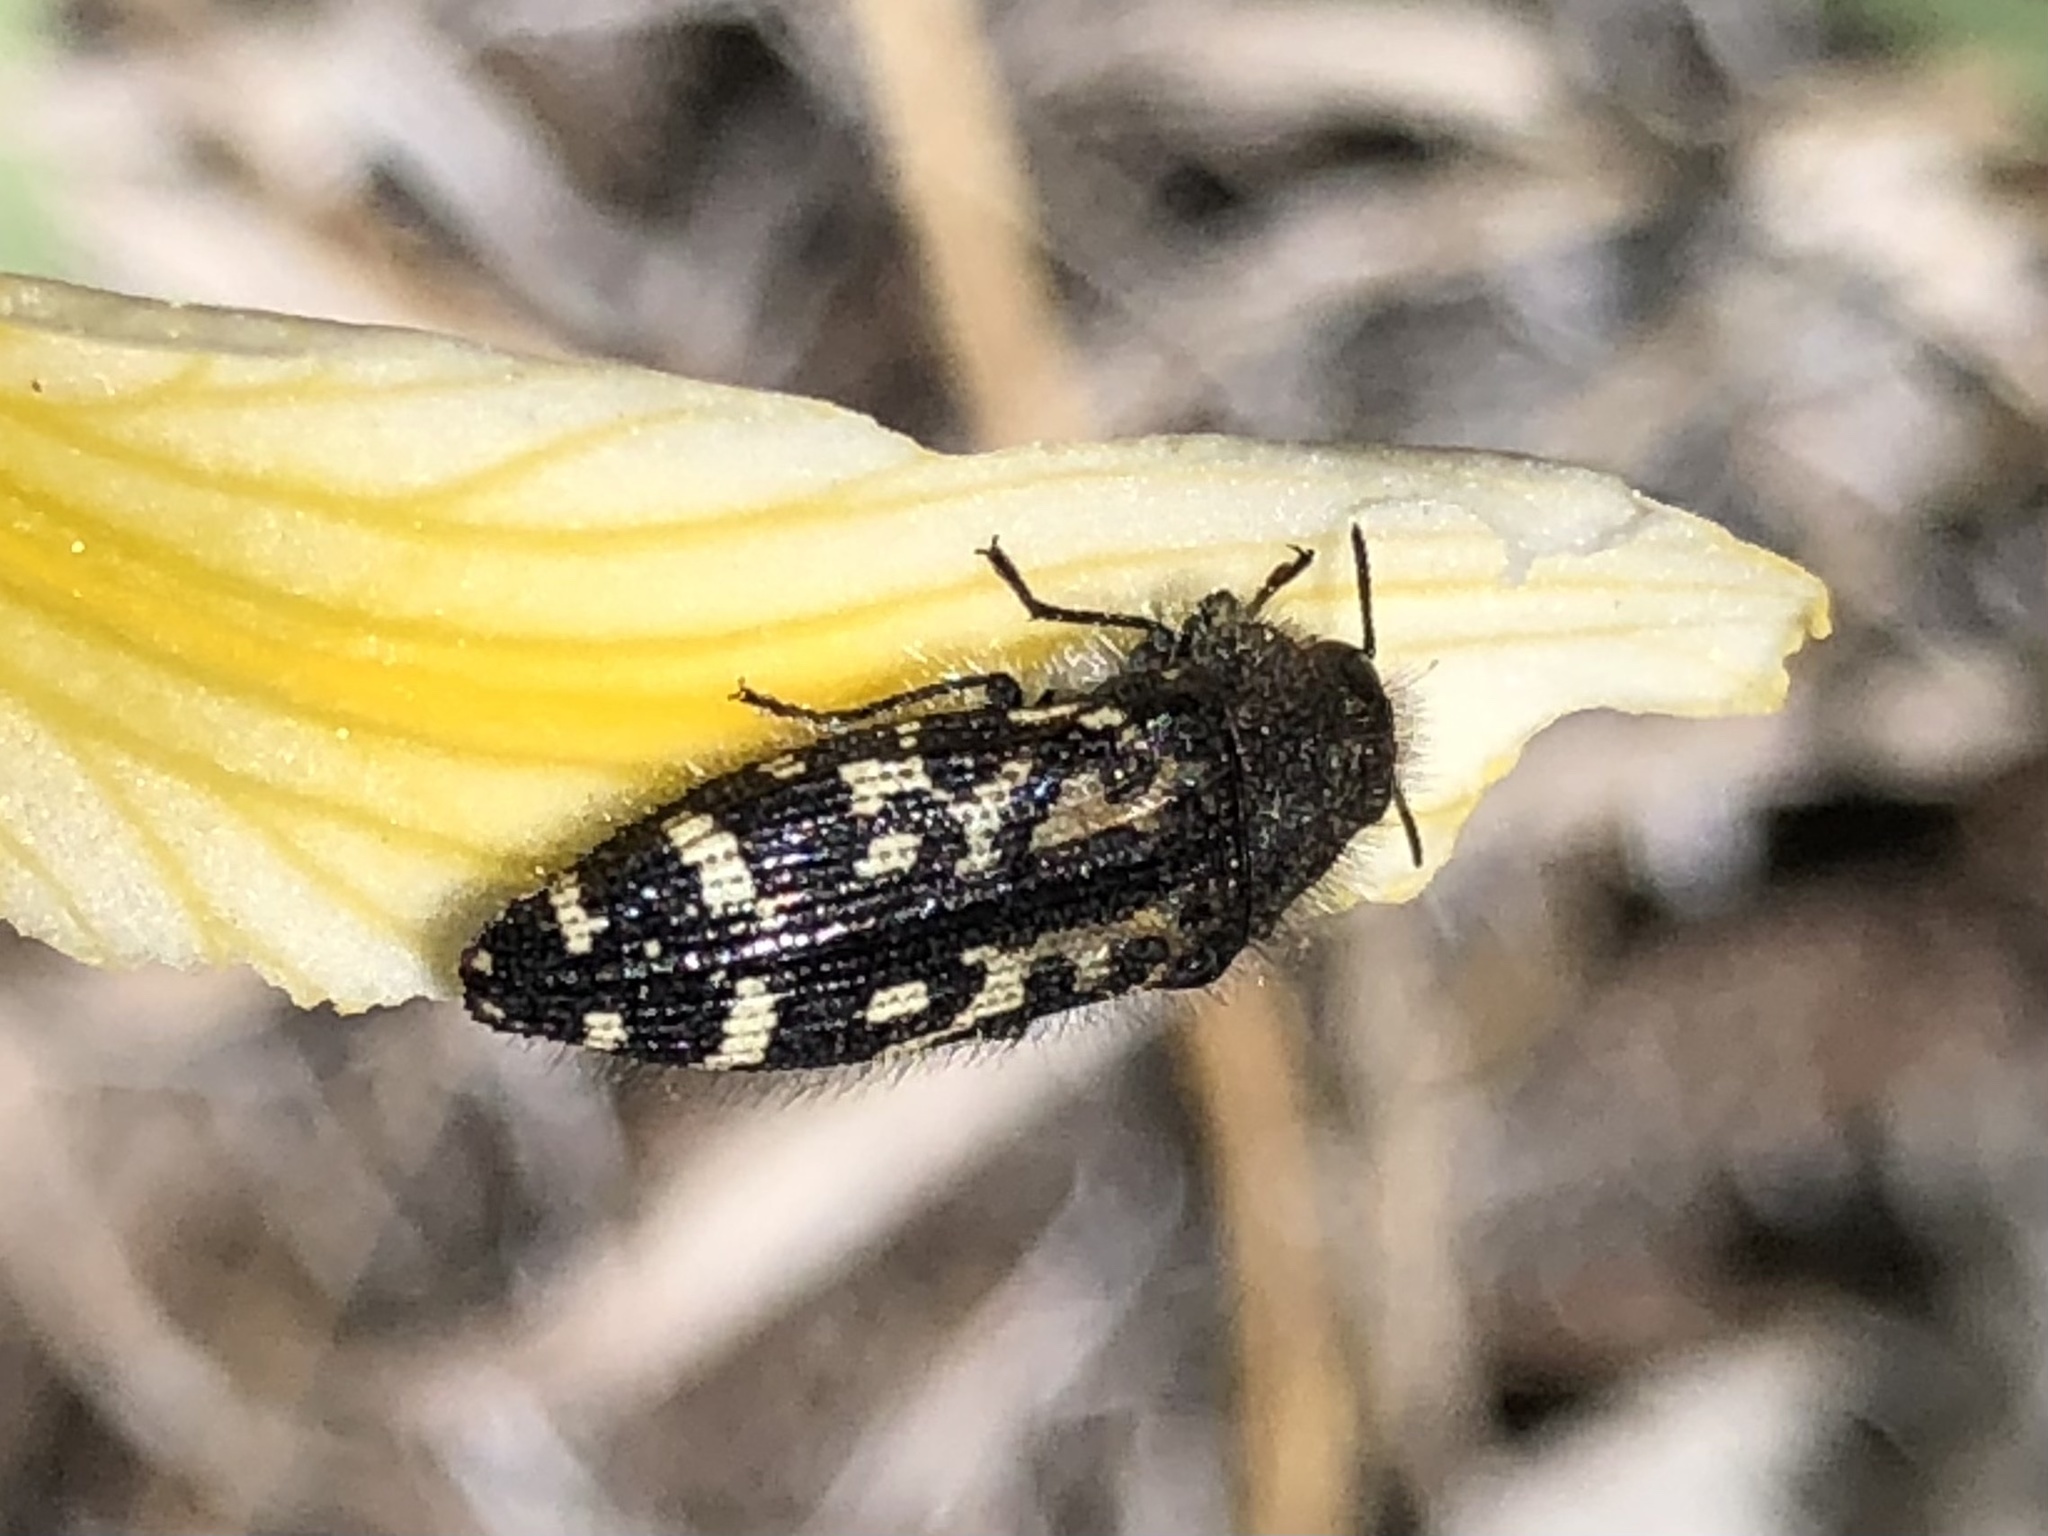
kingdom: Animalia
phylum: Arthropoda
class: Insecta
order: Coleoptera
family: Buprestidae
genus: Acmaeodera
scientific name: Acmaeodera connexa
